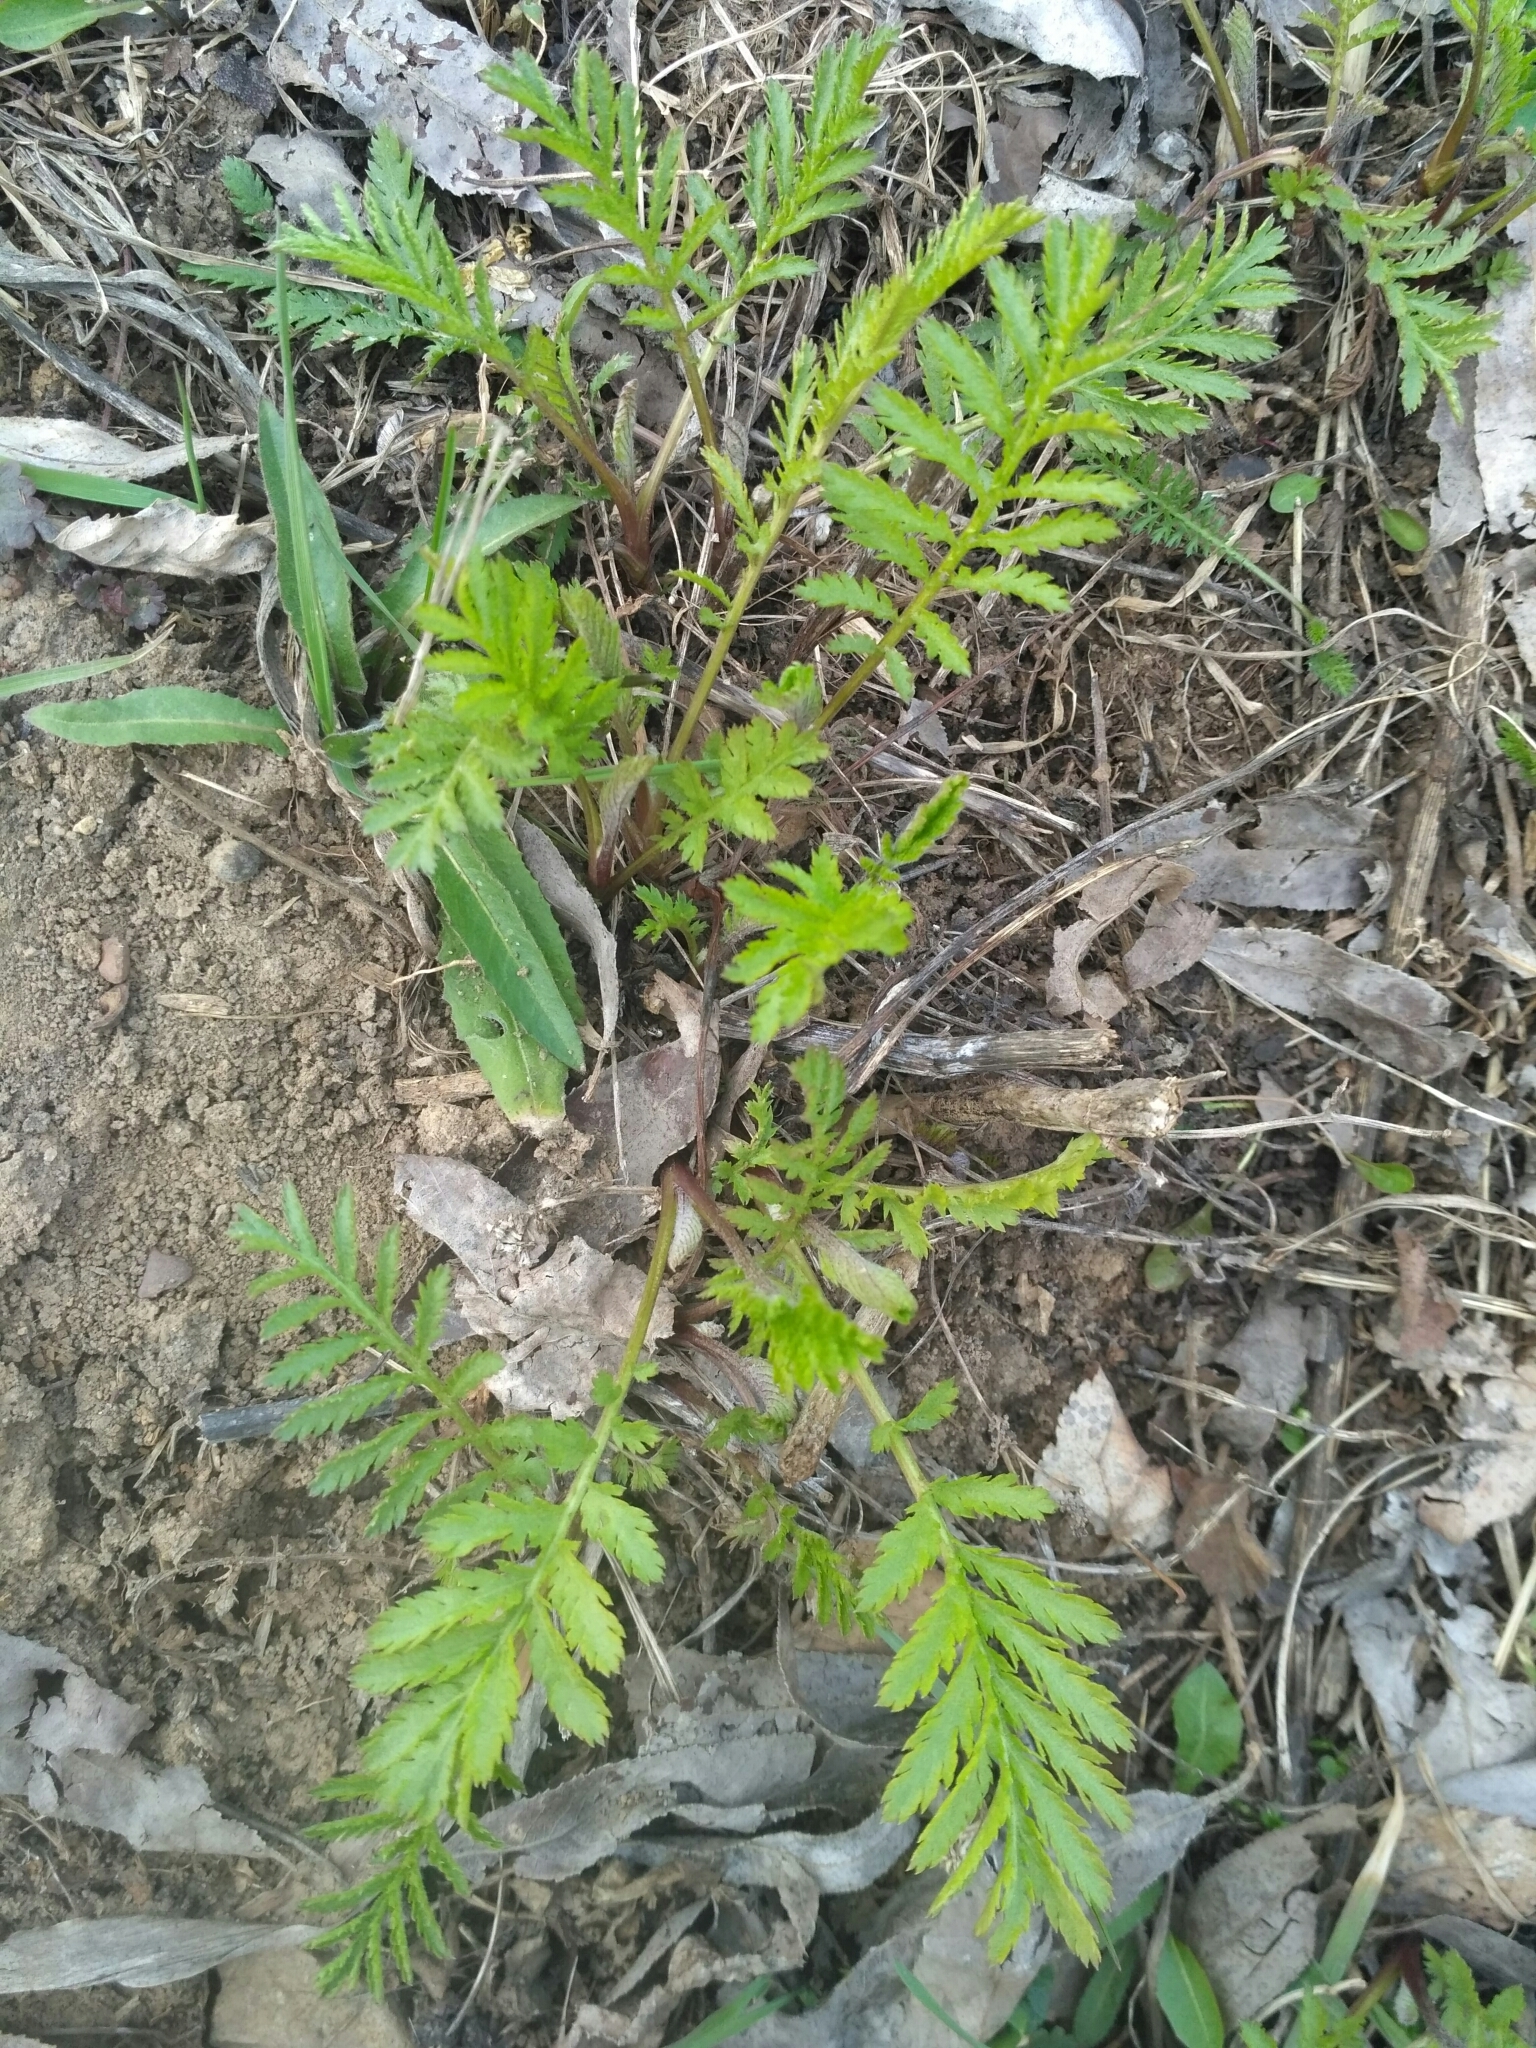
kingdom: Plantae
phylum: Tracheophyta
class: Magnoliopsida
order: Asterales
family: Asteraceae
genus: Tanacetum
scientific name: Tanacetum vulgare
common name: Common tansy
